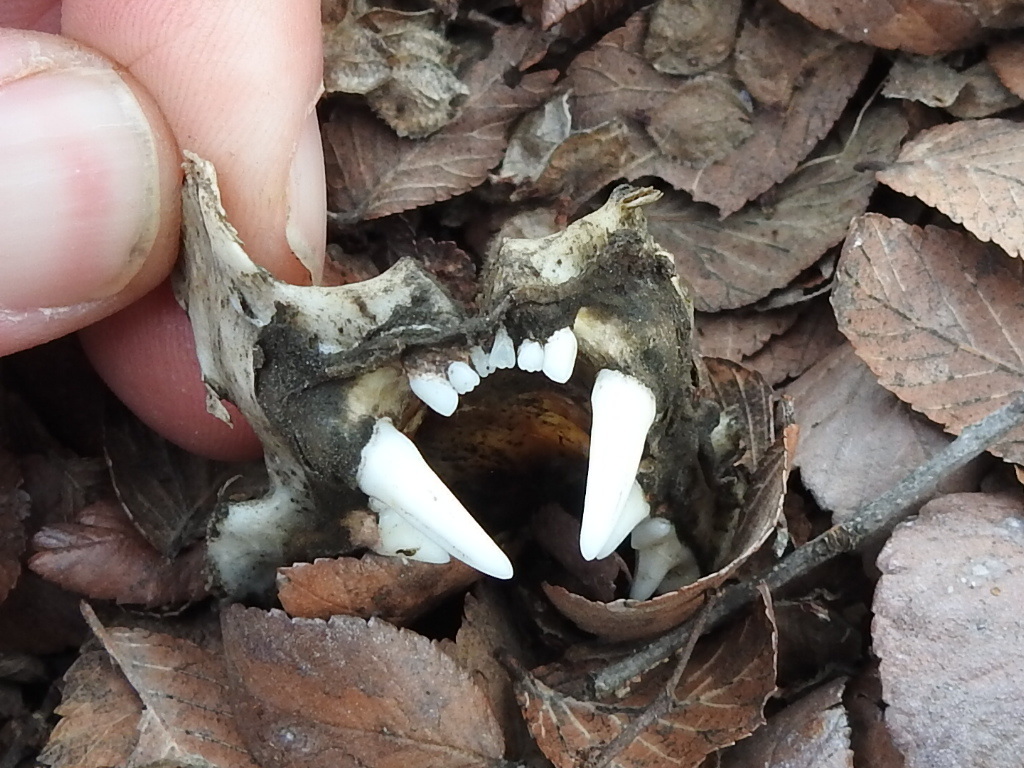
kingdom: Animalia
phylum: Chordata
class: Mammalia
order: Carnivora
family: Felidae
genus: Felis
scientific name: Felis catus
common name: Domestic cat
